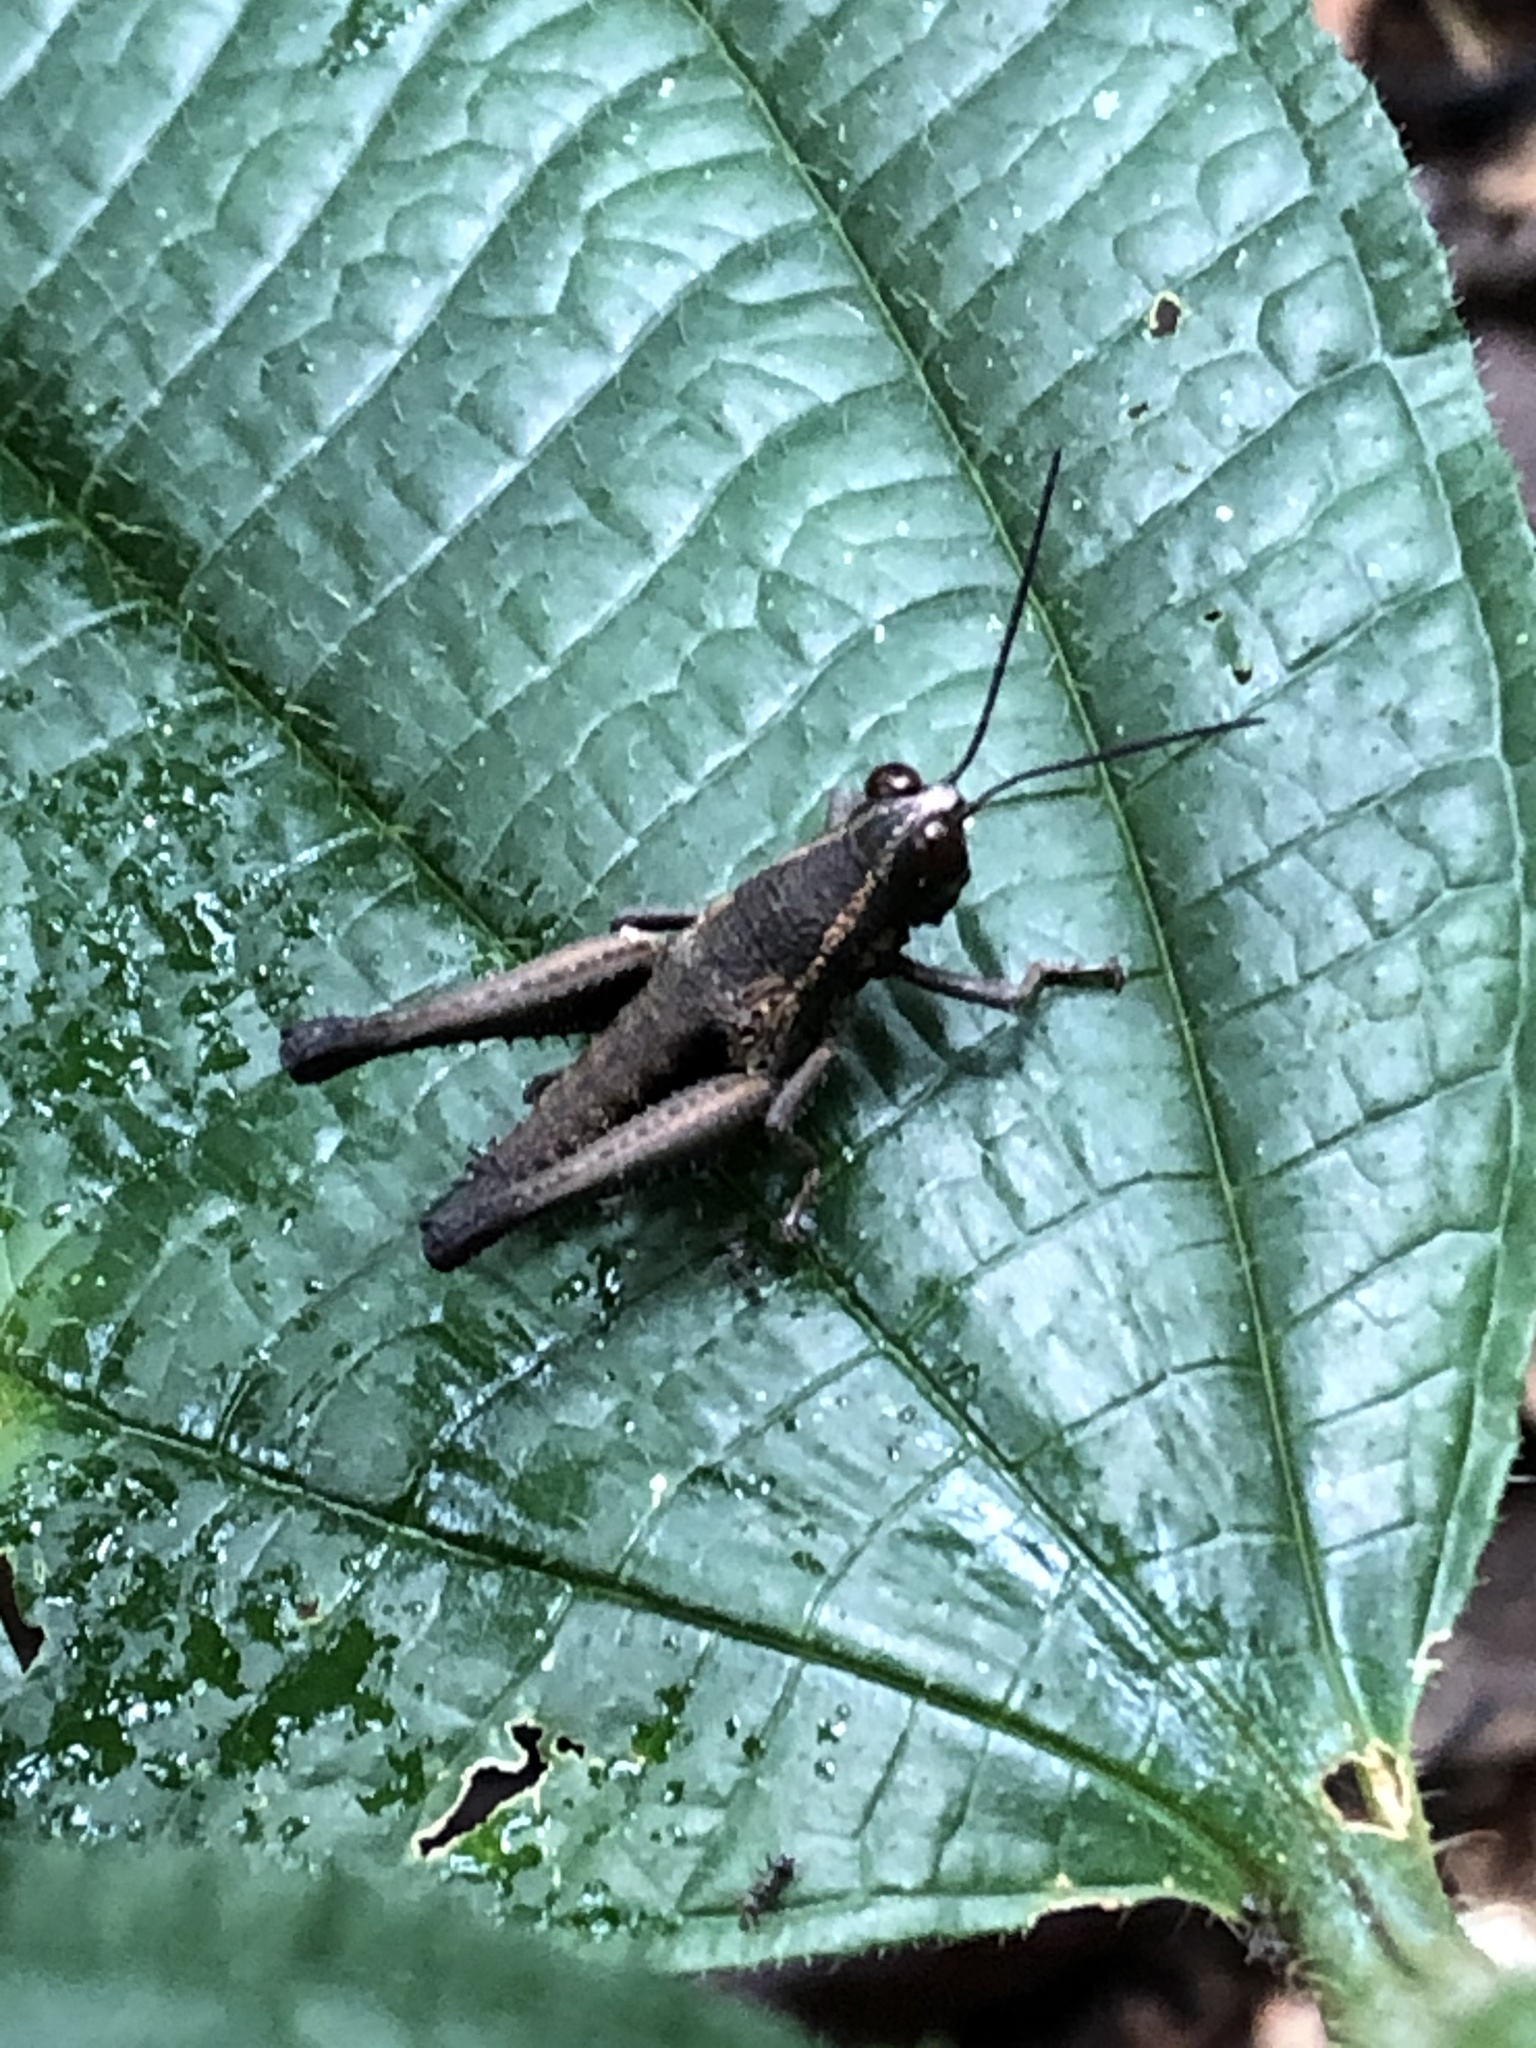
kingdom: Animalia
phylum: Arthropoda
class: Insecta
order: Orthoptera
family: Acrididae
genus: Stenelutracris
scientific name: Stenelutracris lignicola
